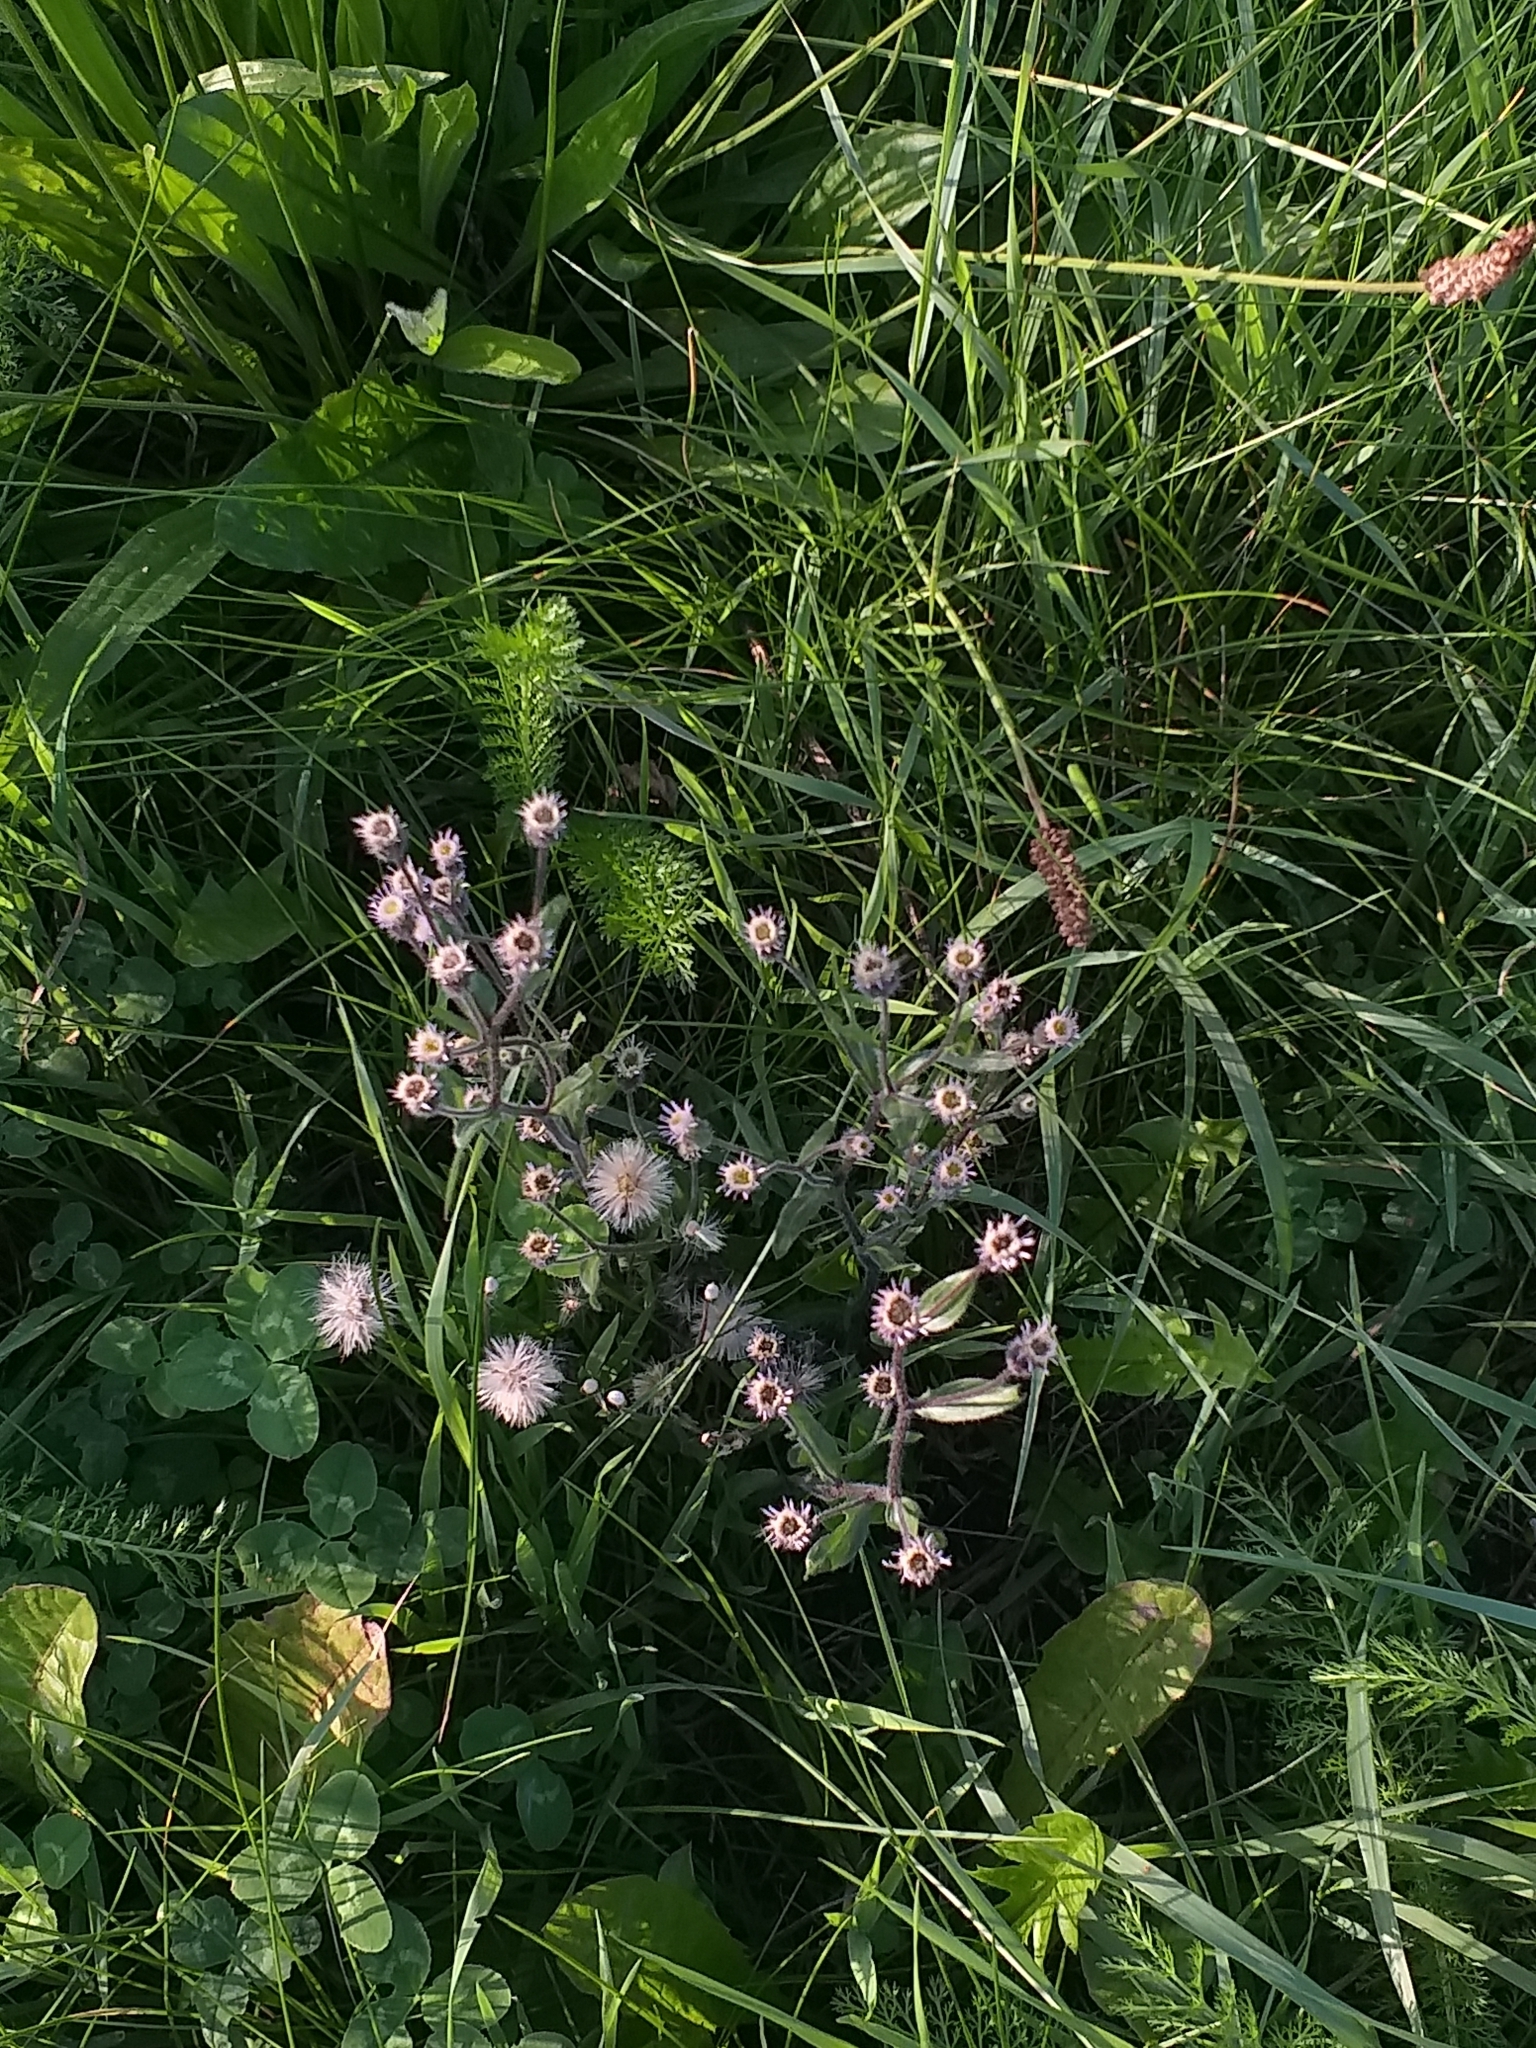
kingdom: Plantae
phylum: Tracheophyta
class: Magnoliopsida
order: Asterales
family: Asteraceae
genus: Erigeron
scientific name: Erigeron acris
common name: Blue fleabane
